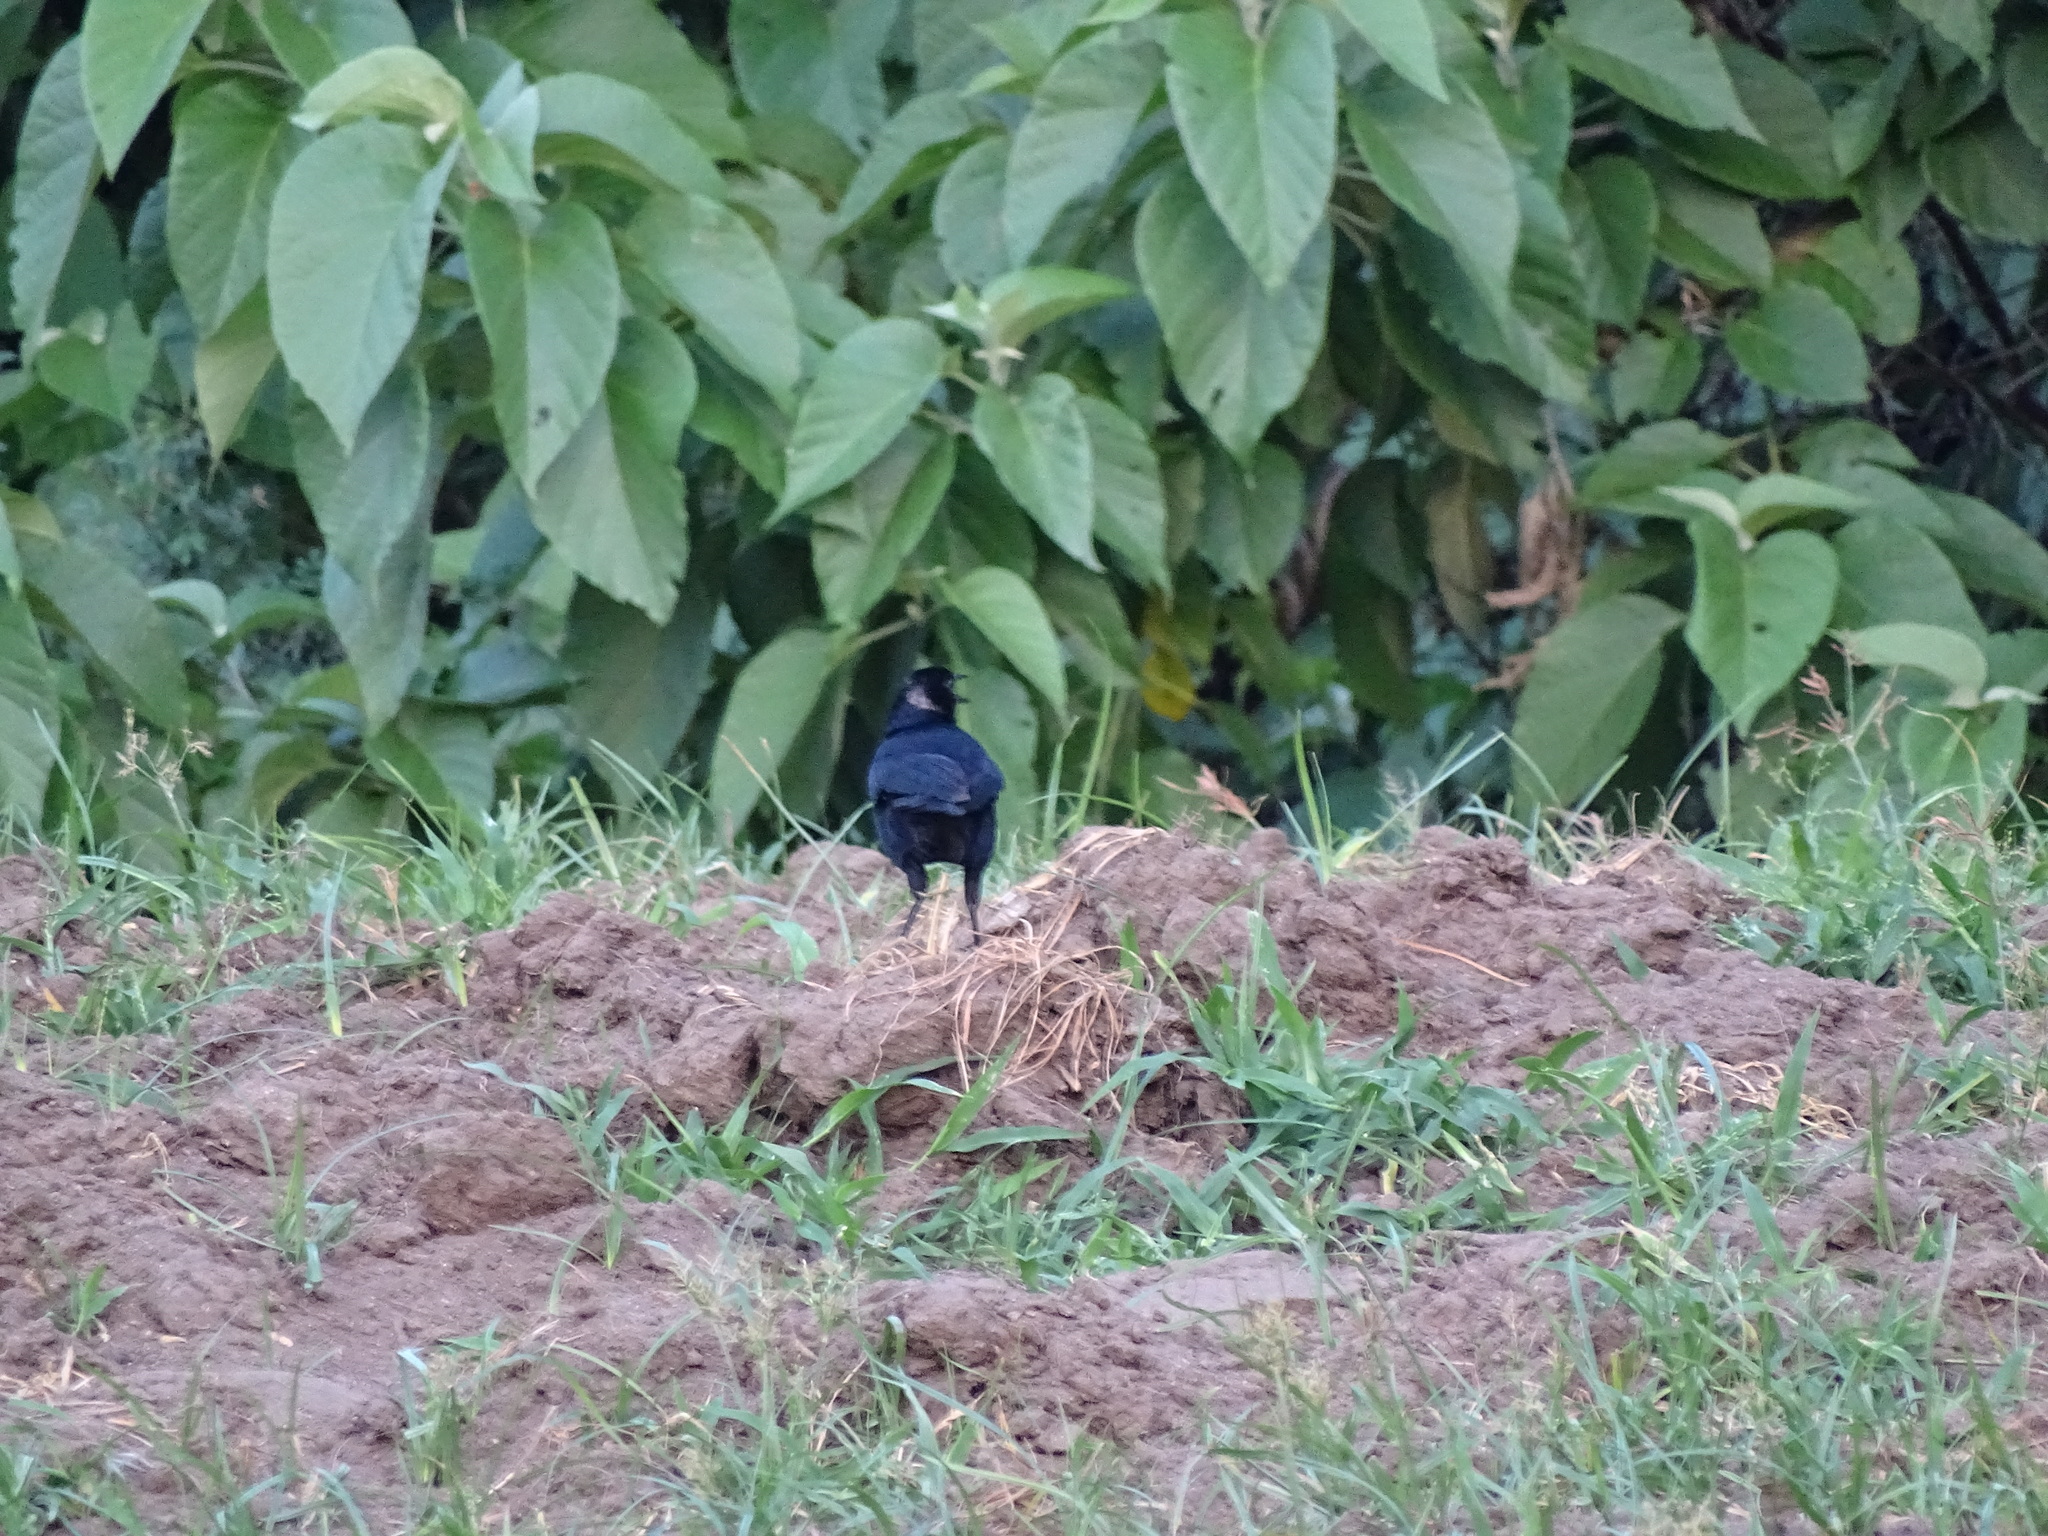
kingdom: Animalia
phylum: Chordata
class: Aves
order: Passeriformes
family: Icteridae
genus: Quiscalus
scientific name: Quiscalus mexicanus
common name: Great-tailed grackle
